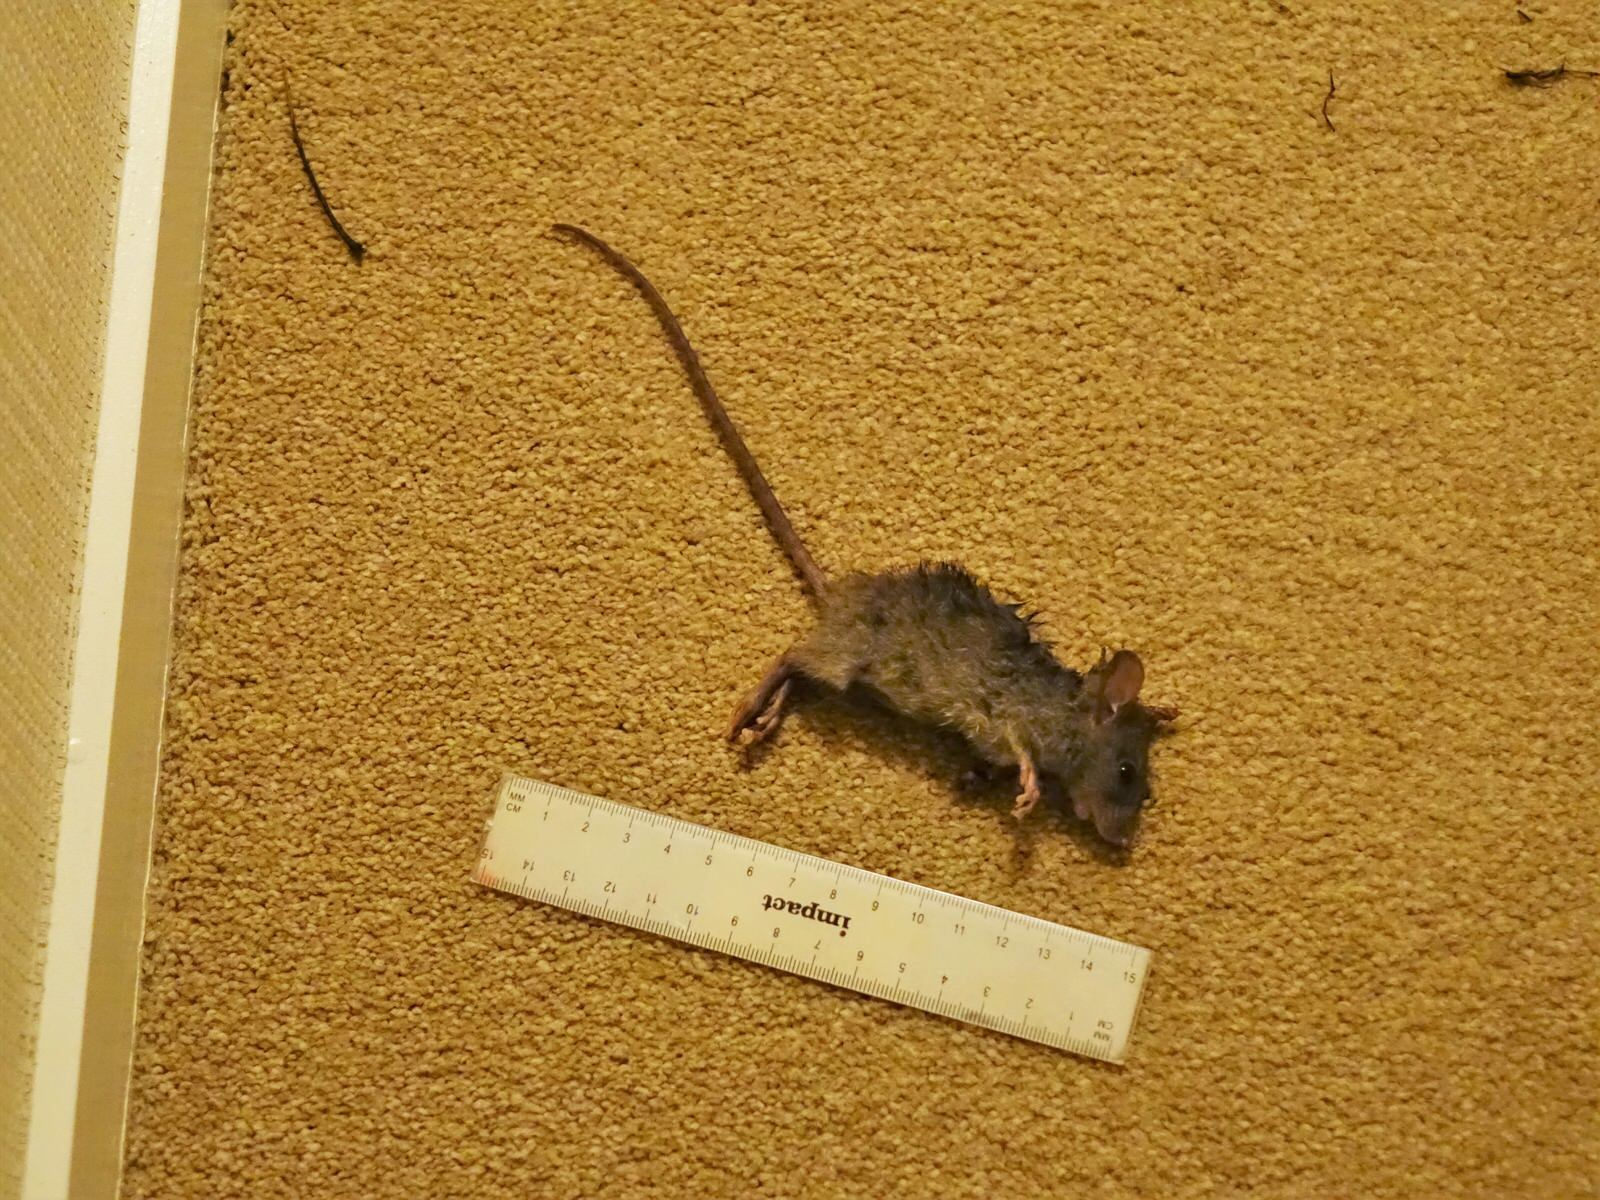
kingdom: Animalia
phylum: Chordata
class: Mammalia
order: Rodentia
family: Muridae
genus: Rattus
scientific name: Rattus rattus
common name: Black rat
